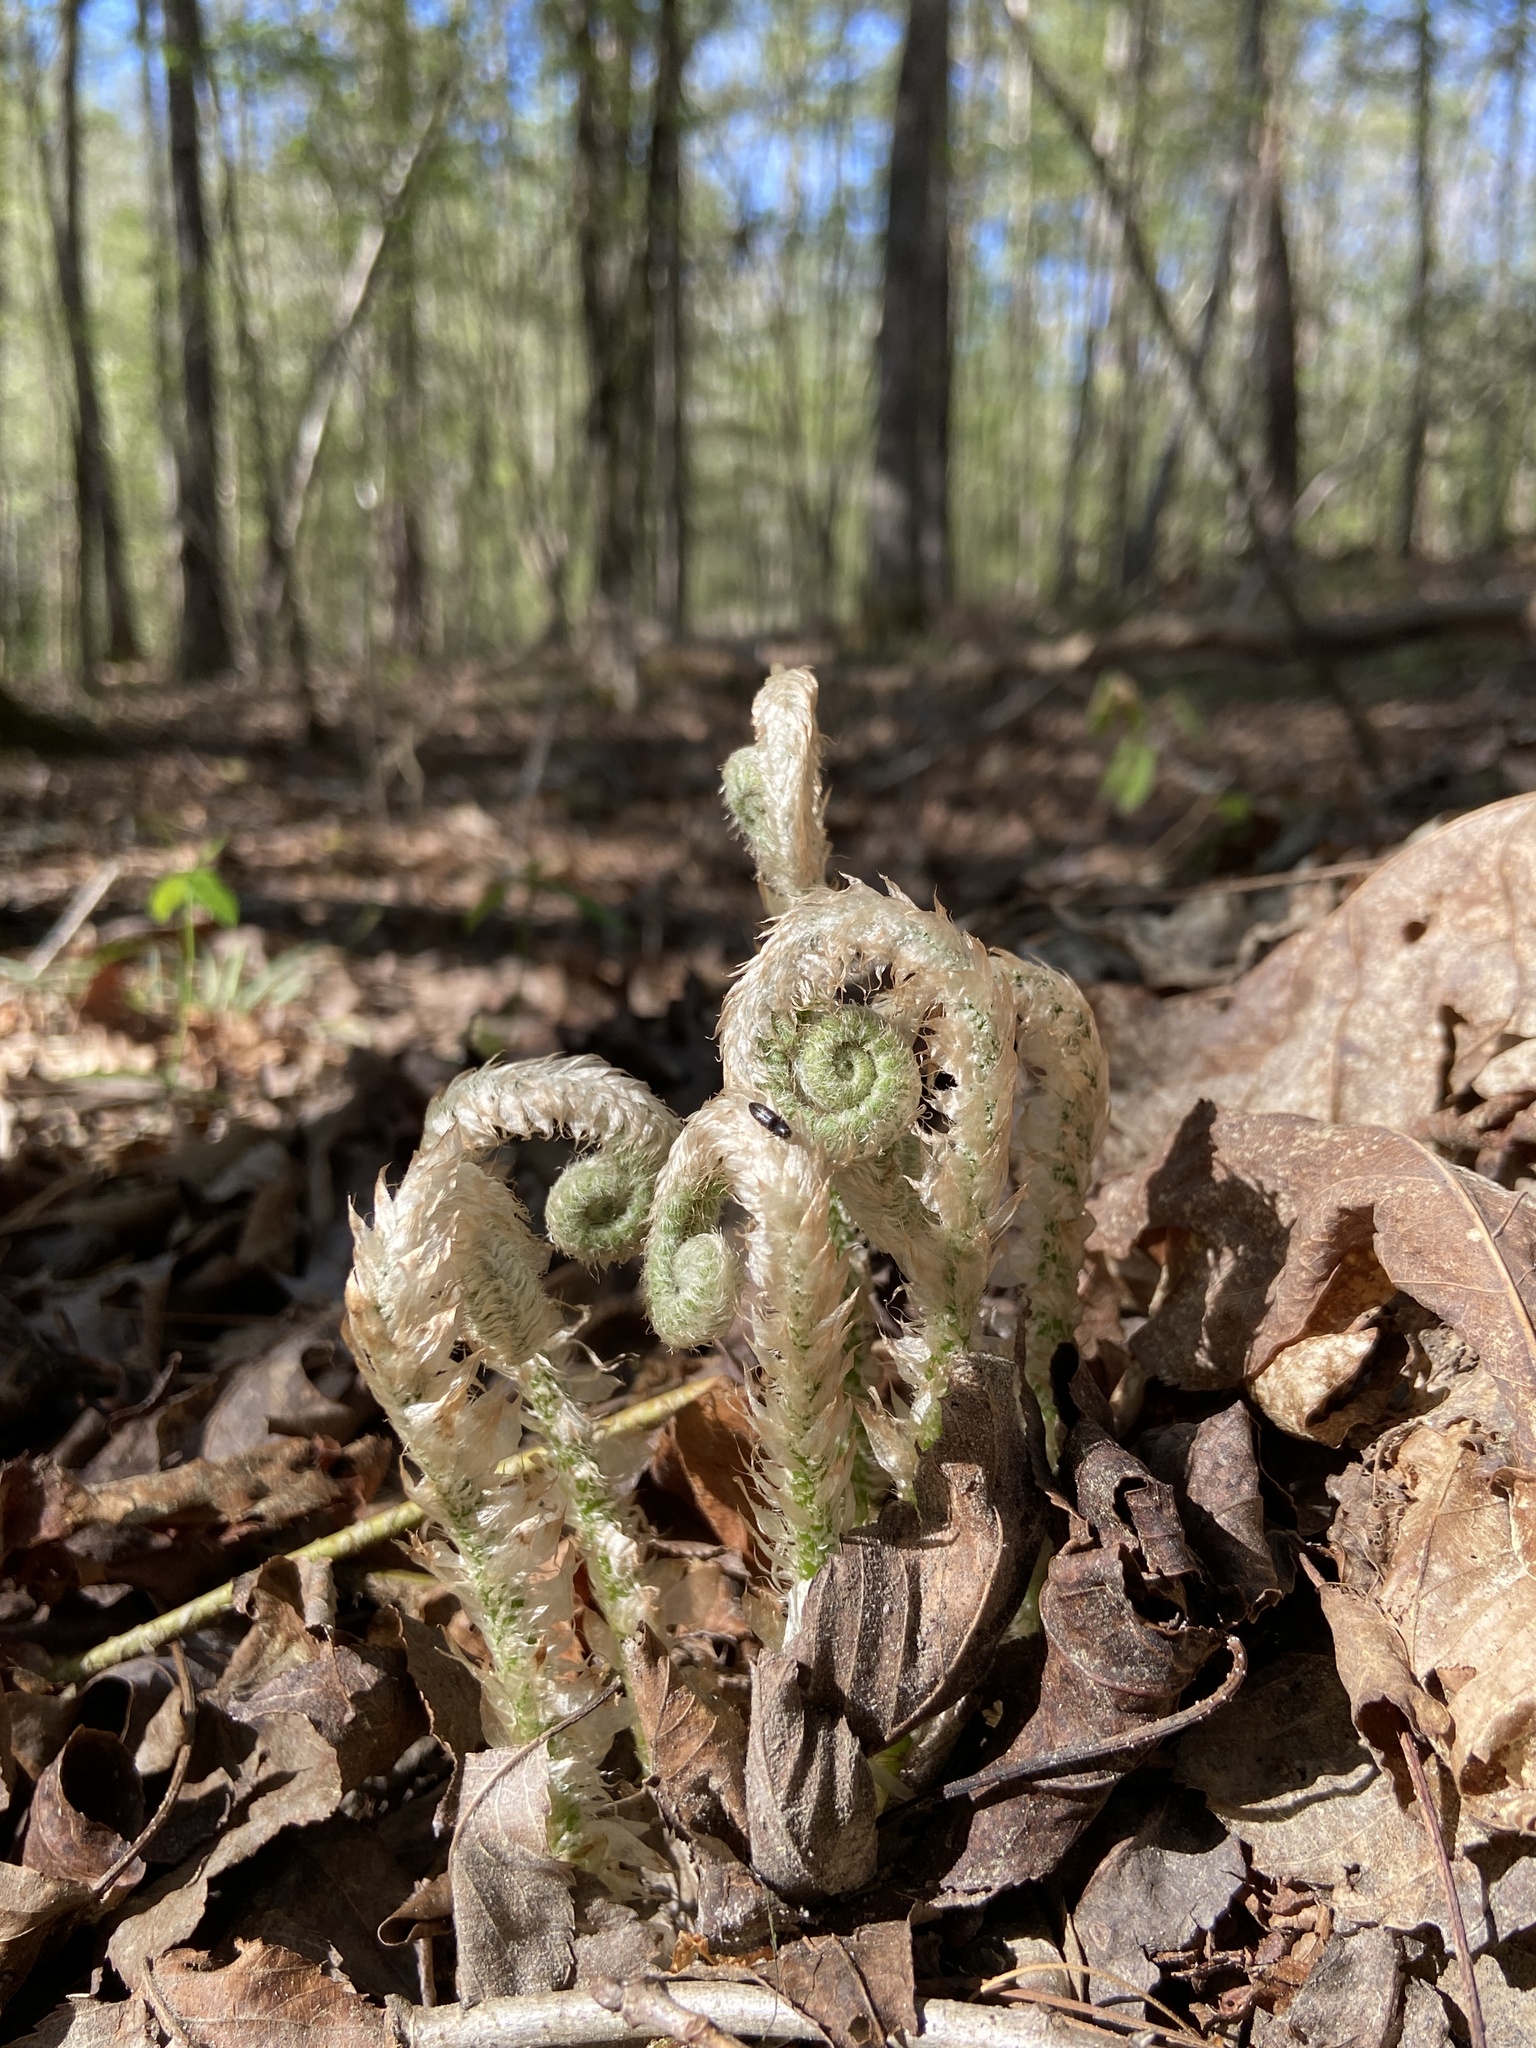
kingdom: Plantae
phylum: Tracheophyta
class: Polypodiopsida
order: Polypodiales
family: Dryopteridaceae
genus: Polystichum
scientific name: Polystichum acrostichoides
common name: Christmas fern
